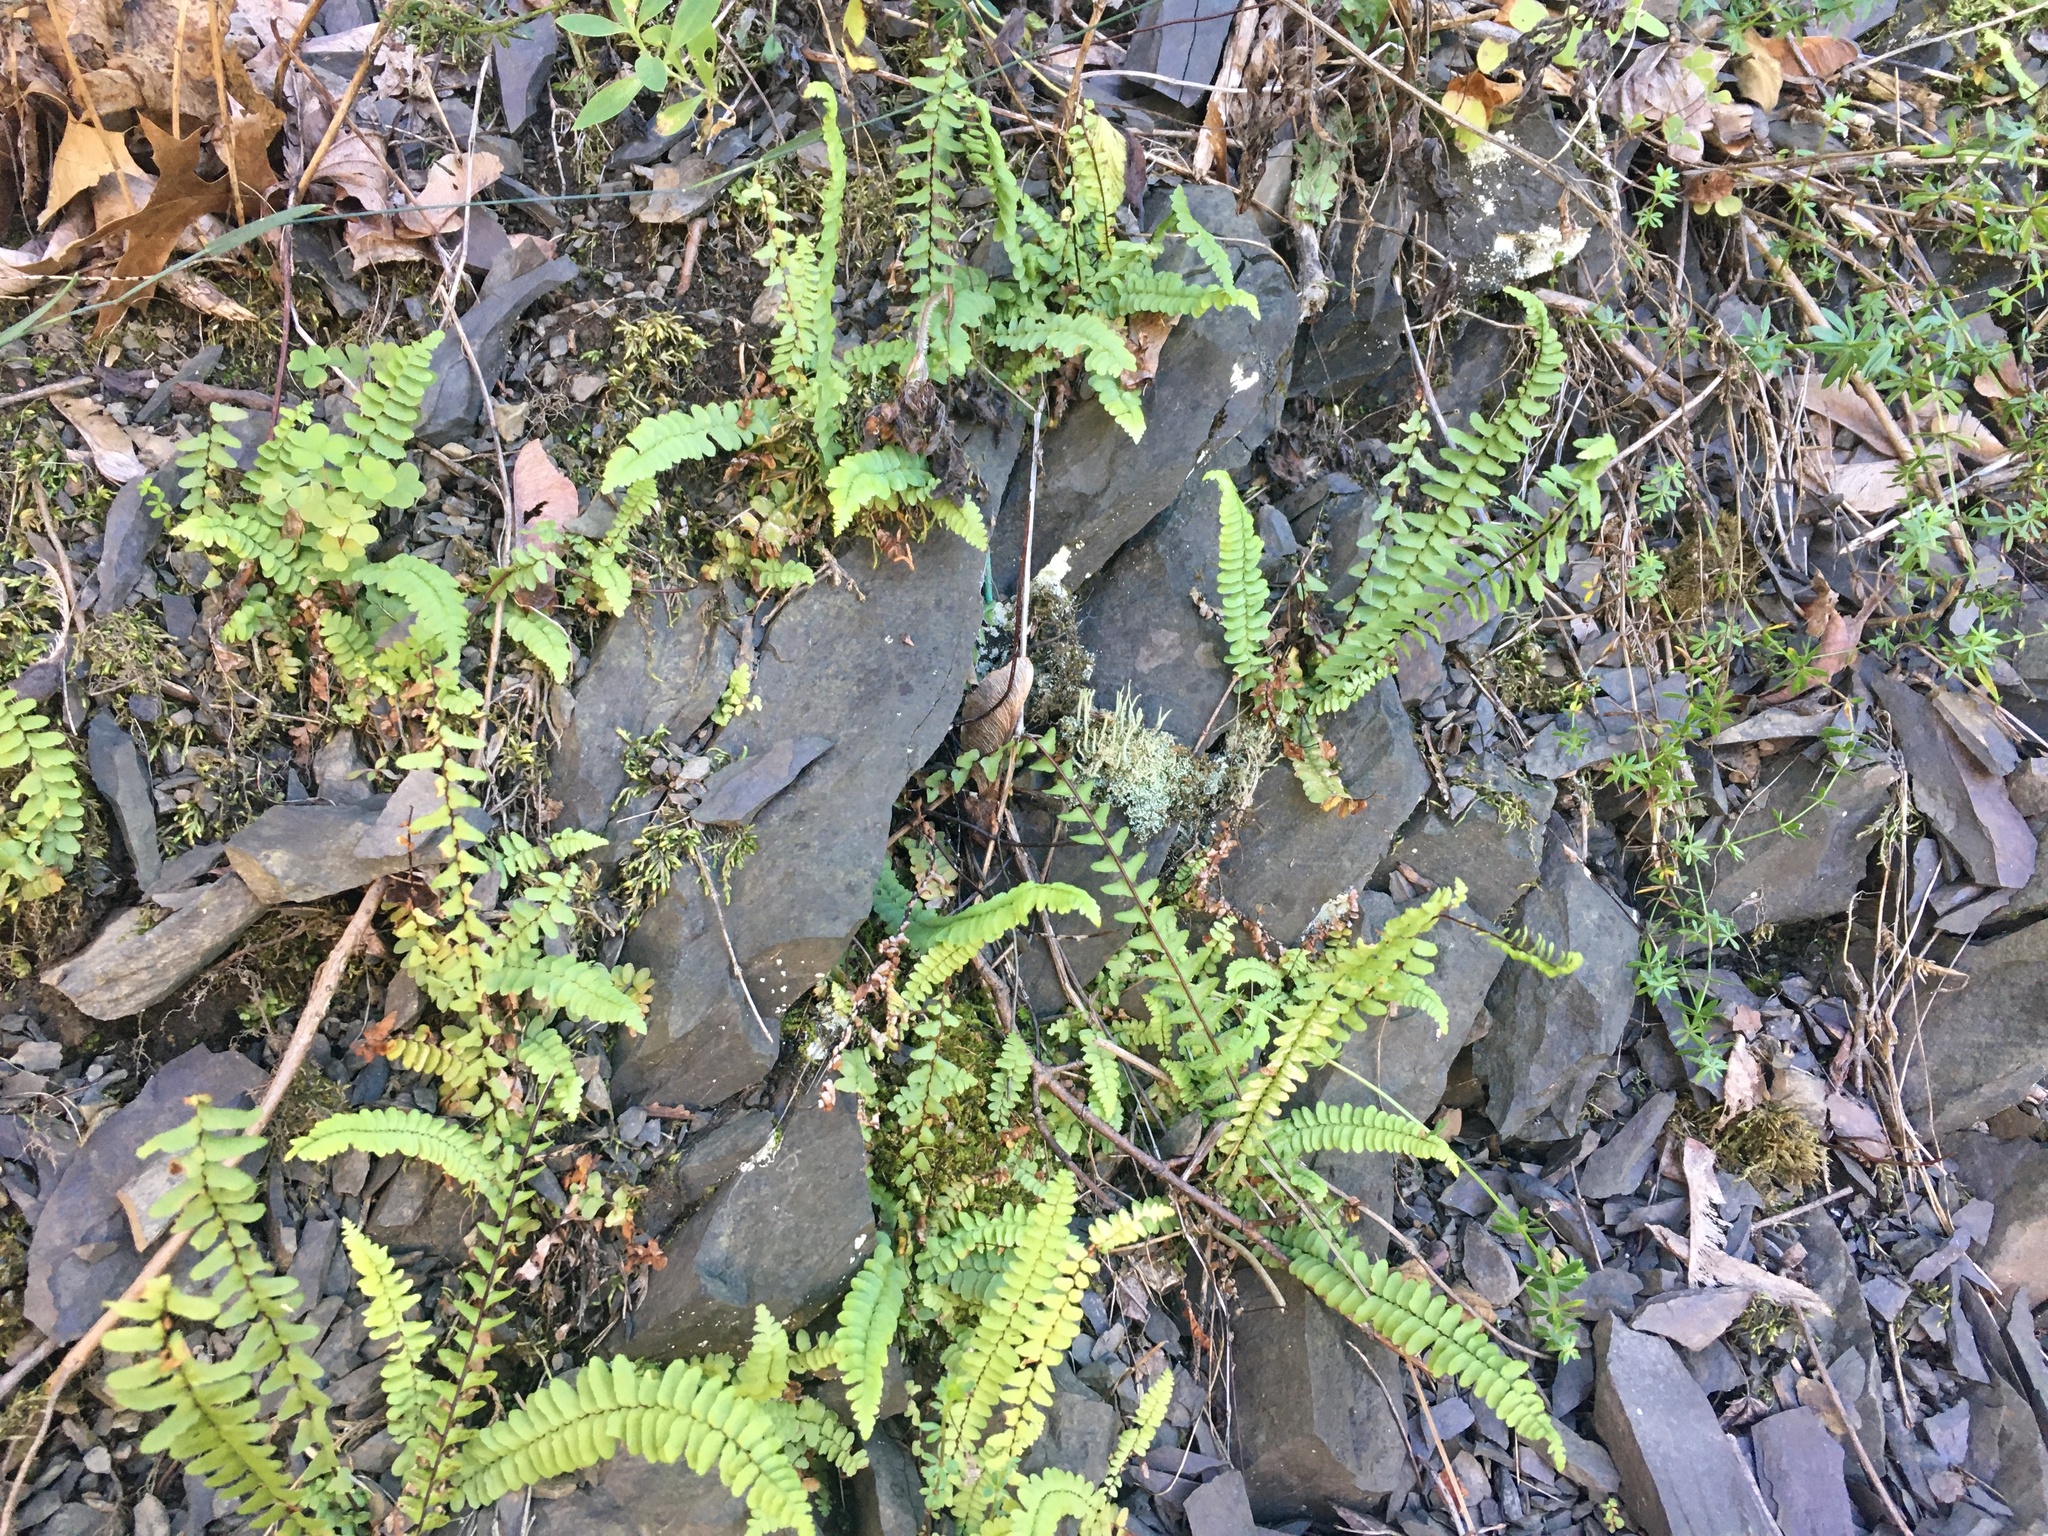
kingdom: Plantae
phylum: Tracheophyta
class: Polypodiopsida
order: Polypodiales
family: Aspleniaceae
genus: Asplenium
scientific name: Asplenium platyneuron
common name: Ebony spleenwort
